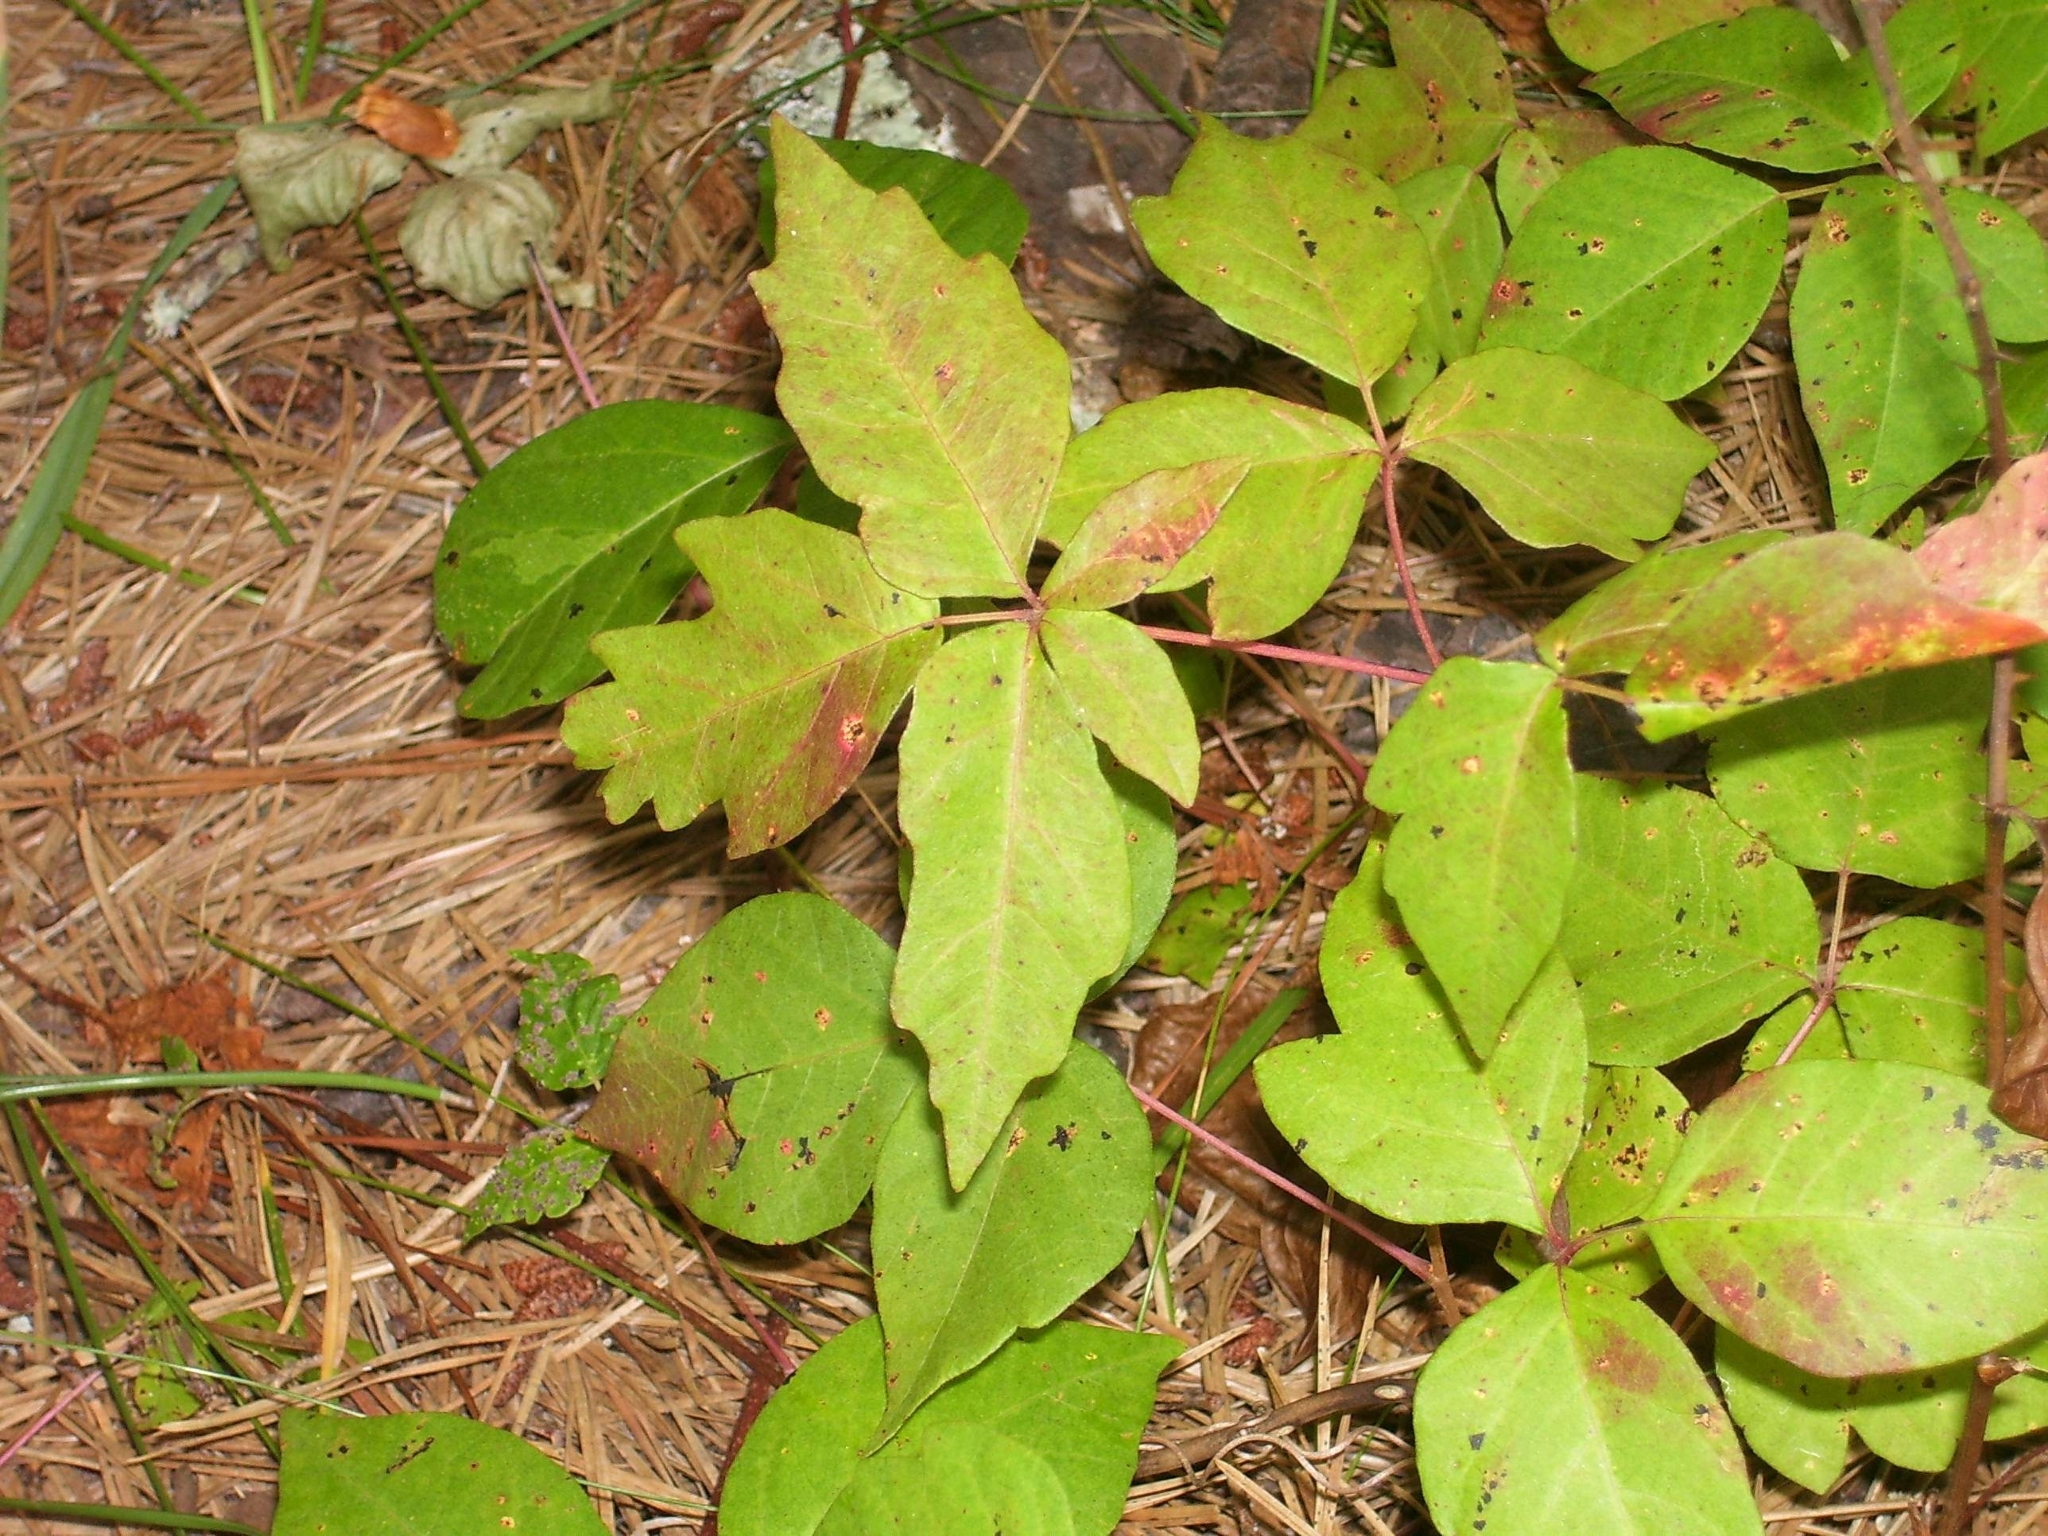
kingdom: Plantae
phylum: Tracheophyta
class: Magnoliopsida
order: Sapindales
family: Anacardiaceae
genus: Toxicodendron
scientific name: Toxicodendron radicans
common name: Poison ivy
